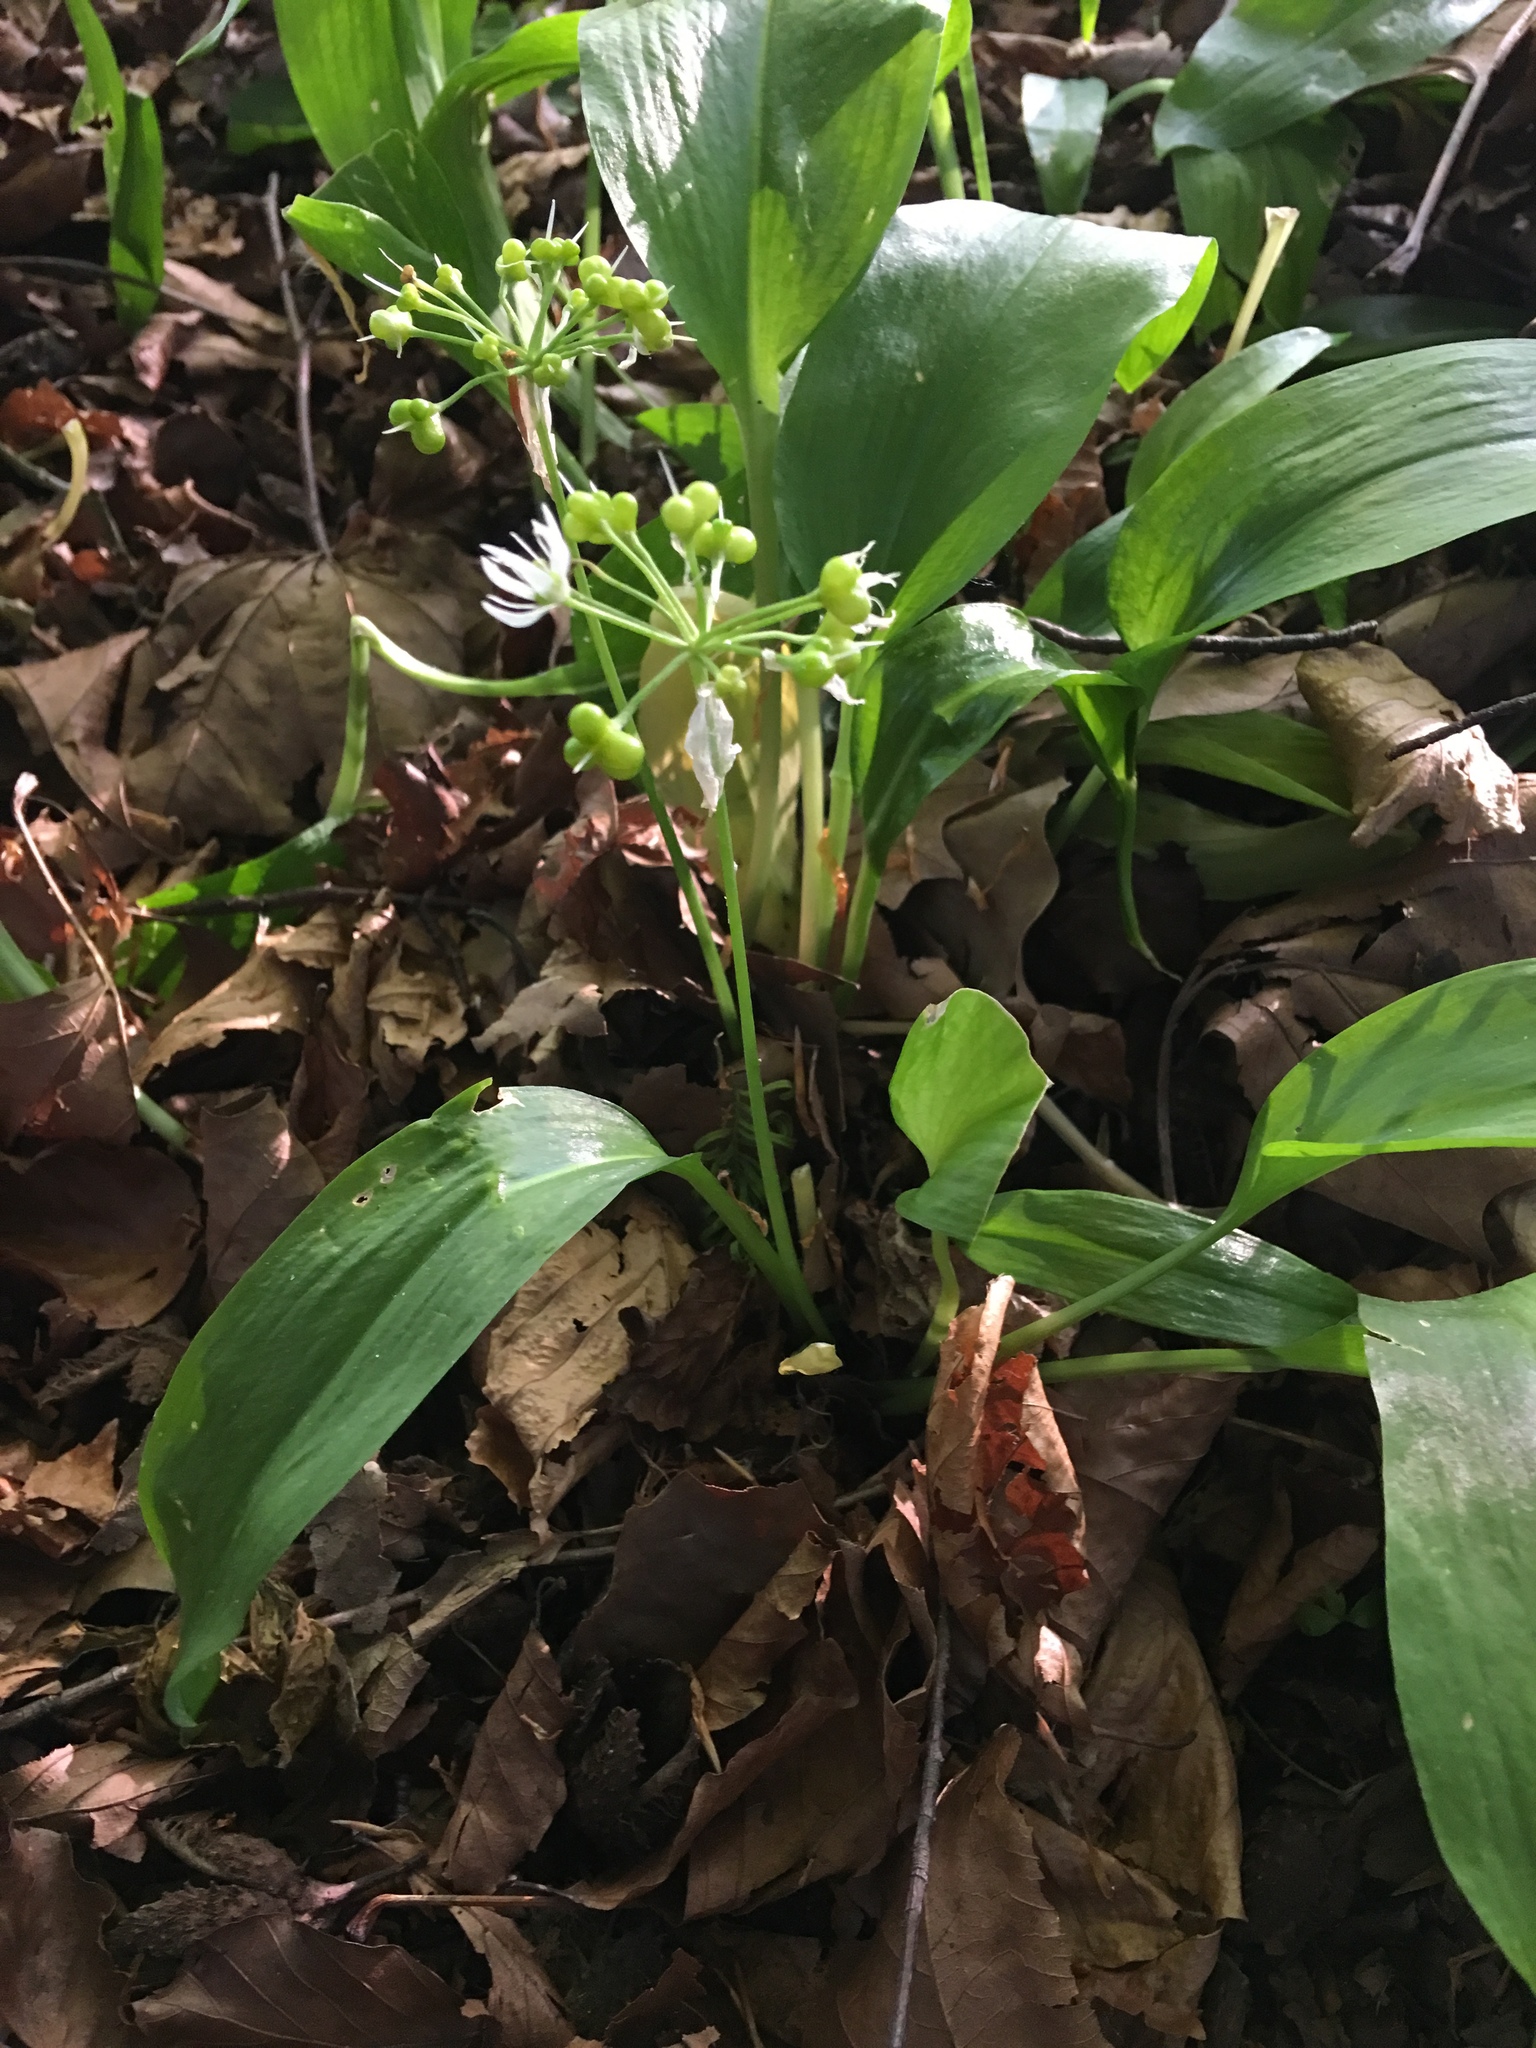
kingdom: Plantae
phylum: Tracheophyta
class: Liliopsida
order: Asparagales
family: Amaryllidaceae
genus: Allium
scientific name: Allium ursinum
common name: Ramsons
